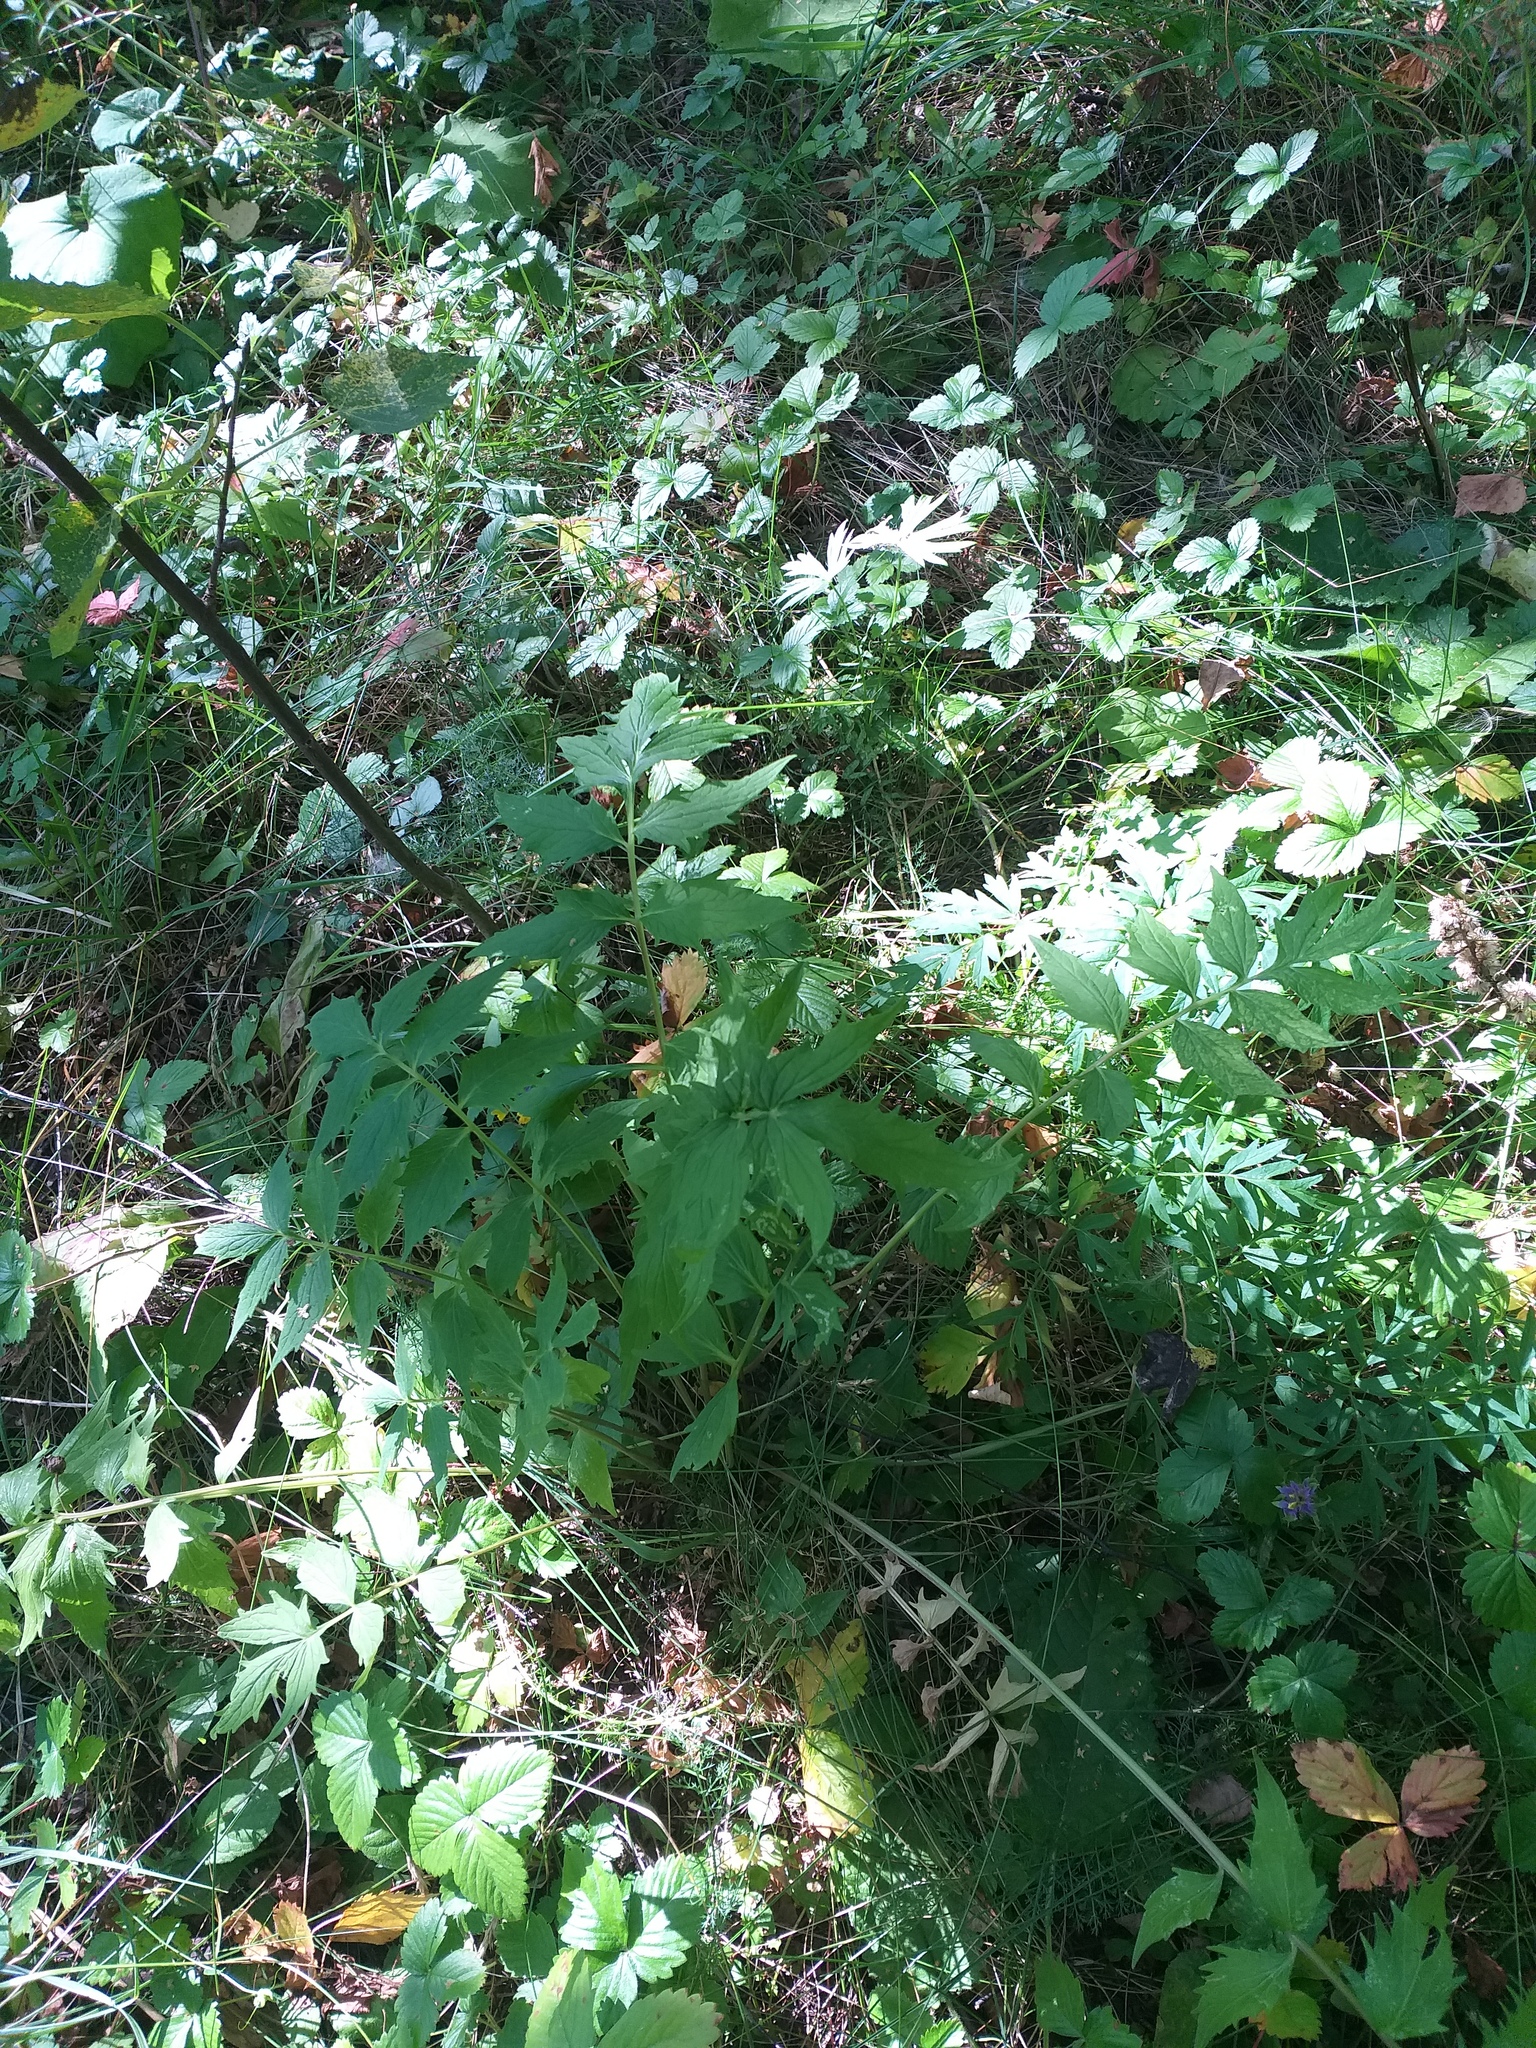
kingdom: Plantae
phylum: Tracheophyta
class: Magnoliopsida
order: Dipsacales
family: Caprifoliaceae
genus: Valeriana
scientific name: Valeriana officinalis
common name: Common valerian
